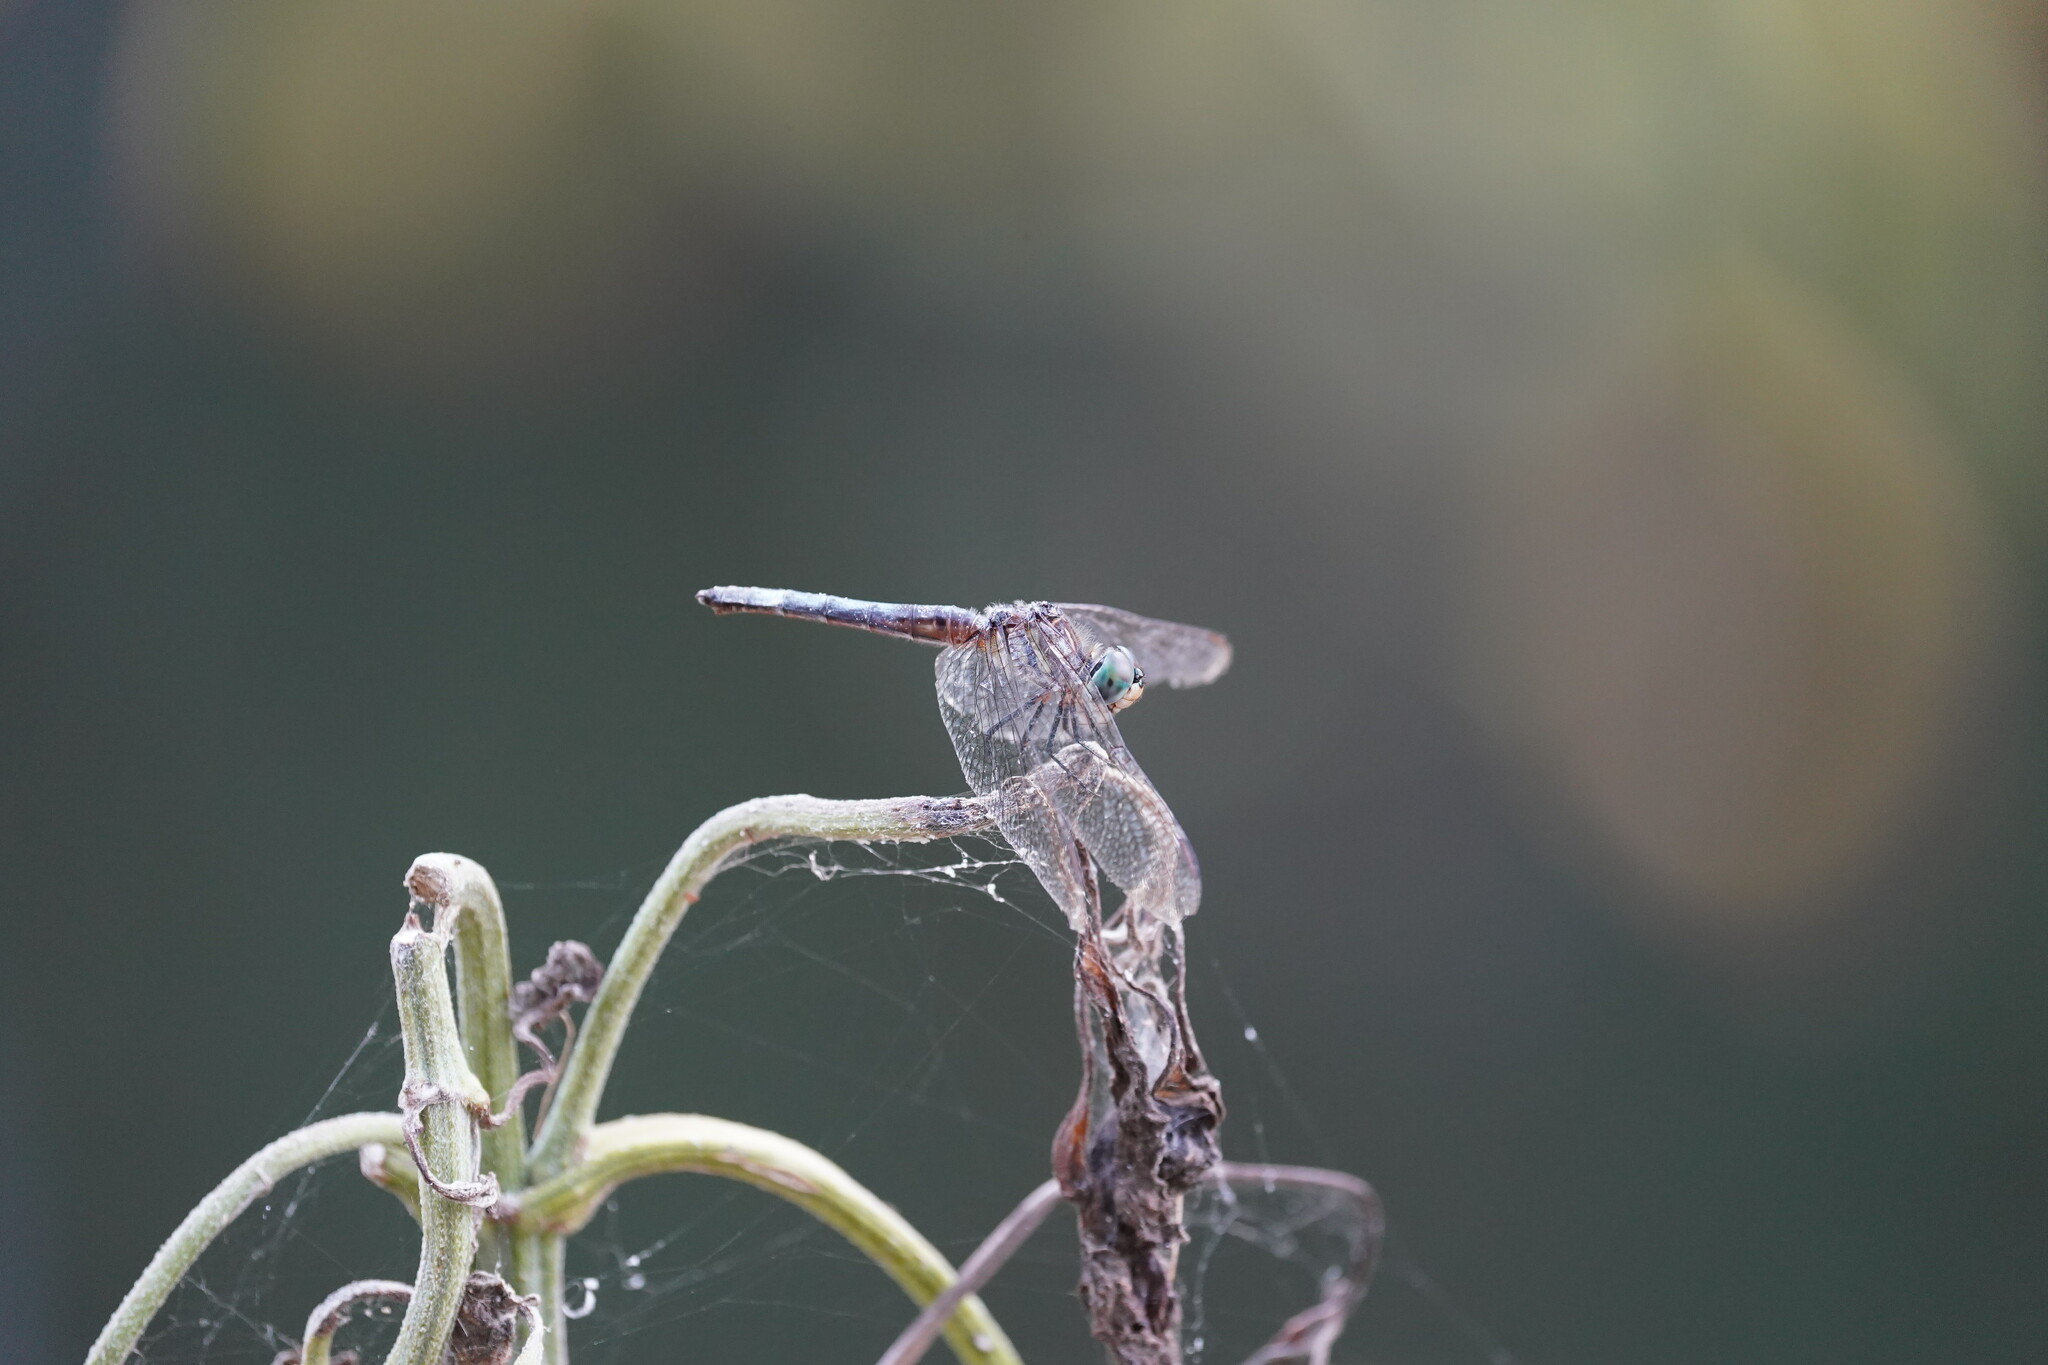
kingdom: Animalia
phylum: Arthropoda
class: Insecta
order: Odonata
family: Libellulidae
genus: Pachydiplax
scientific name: Pachydiplax longipennis
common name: Blue dasher
